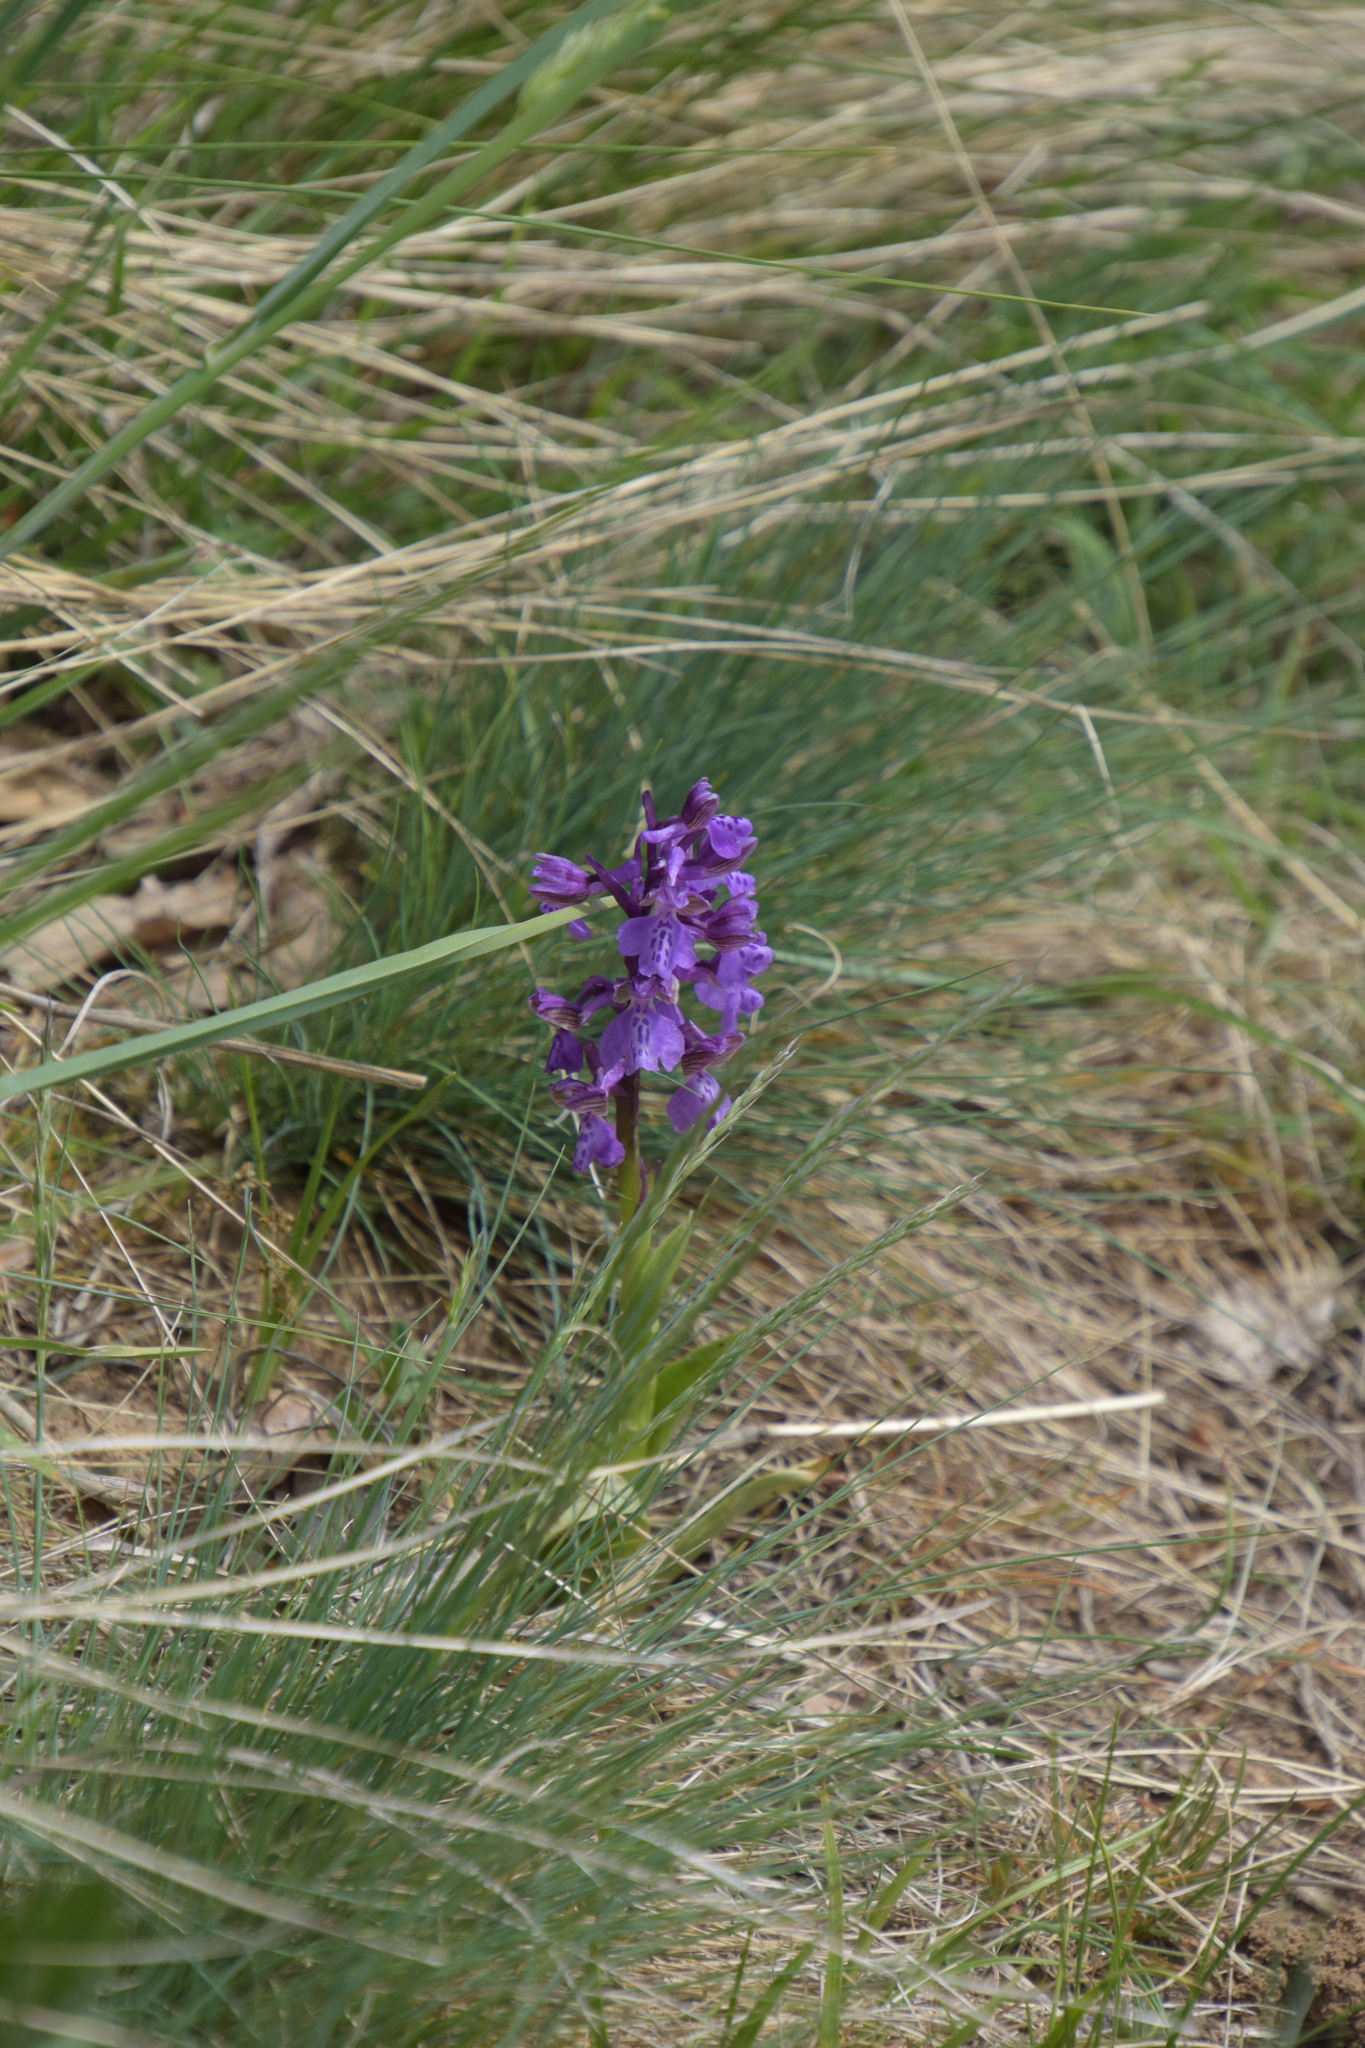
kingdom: Plantae
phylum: Tracheophyta
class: Liliopsida
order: Asparagales
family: Orchidaceae
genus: Anacamptis
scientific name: Anacamptis morio
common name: Green-winged orchid
